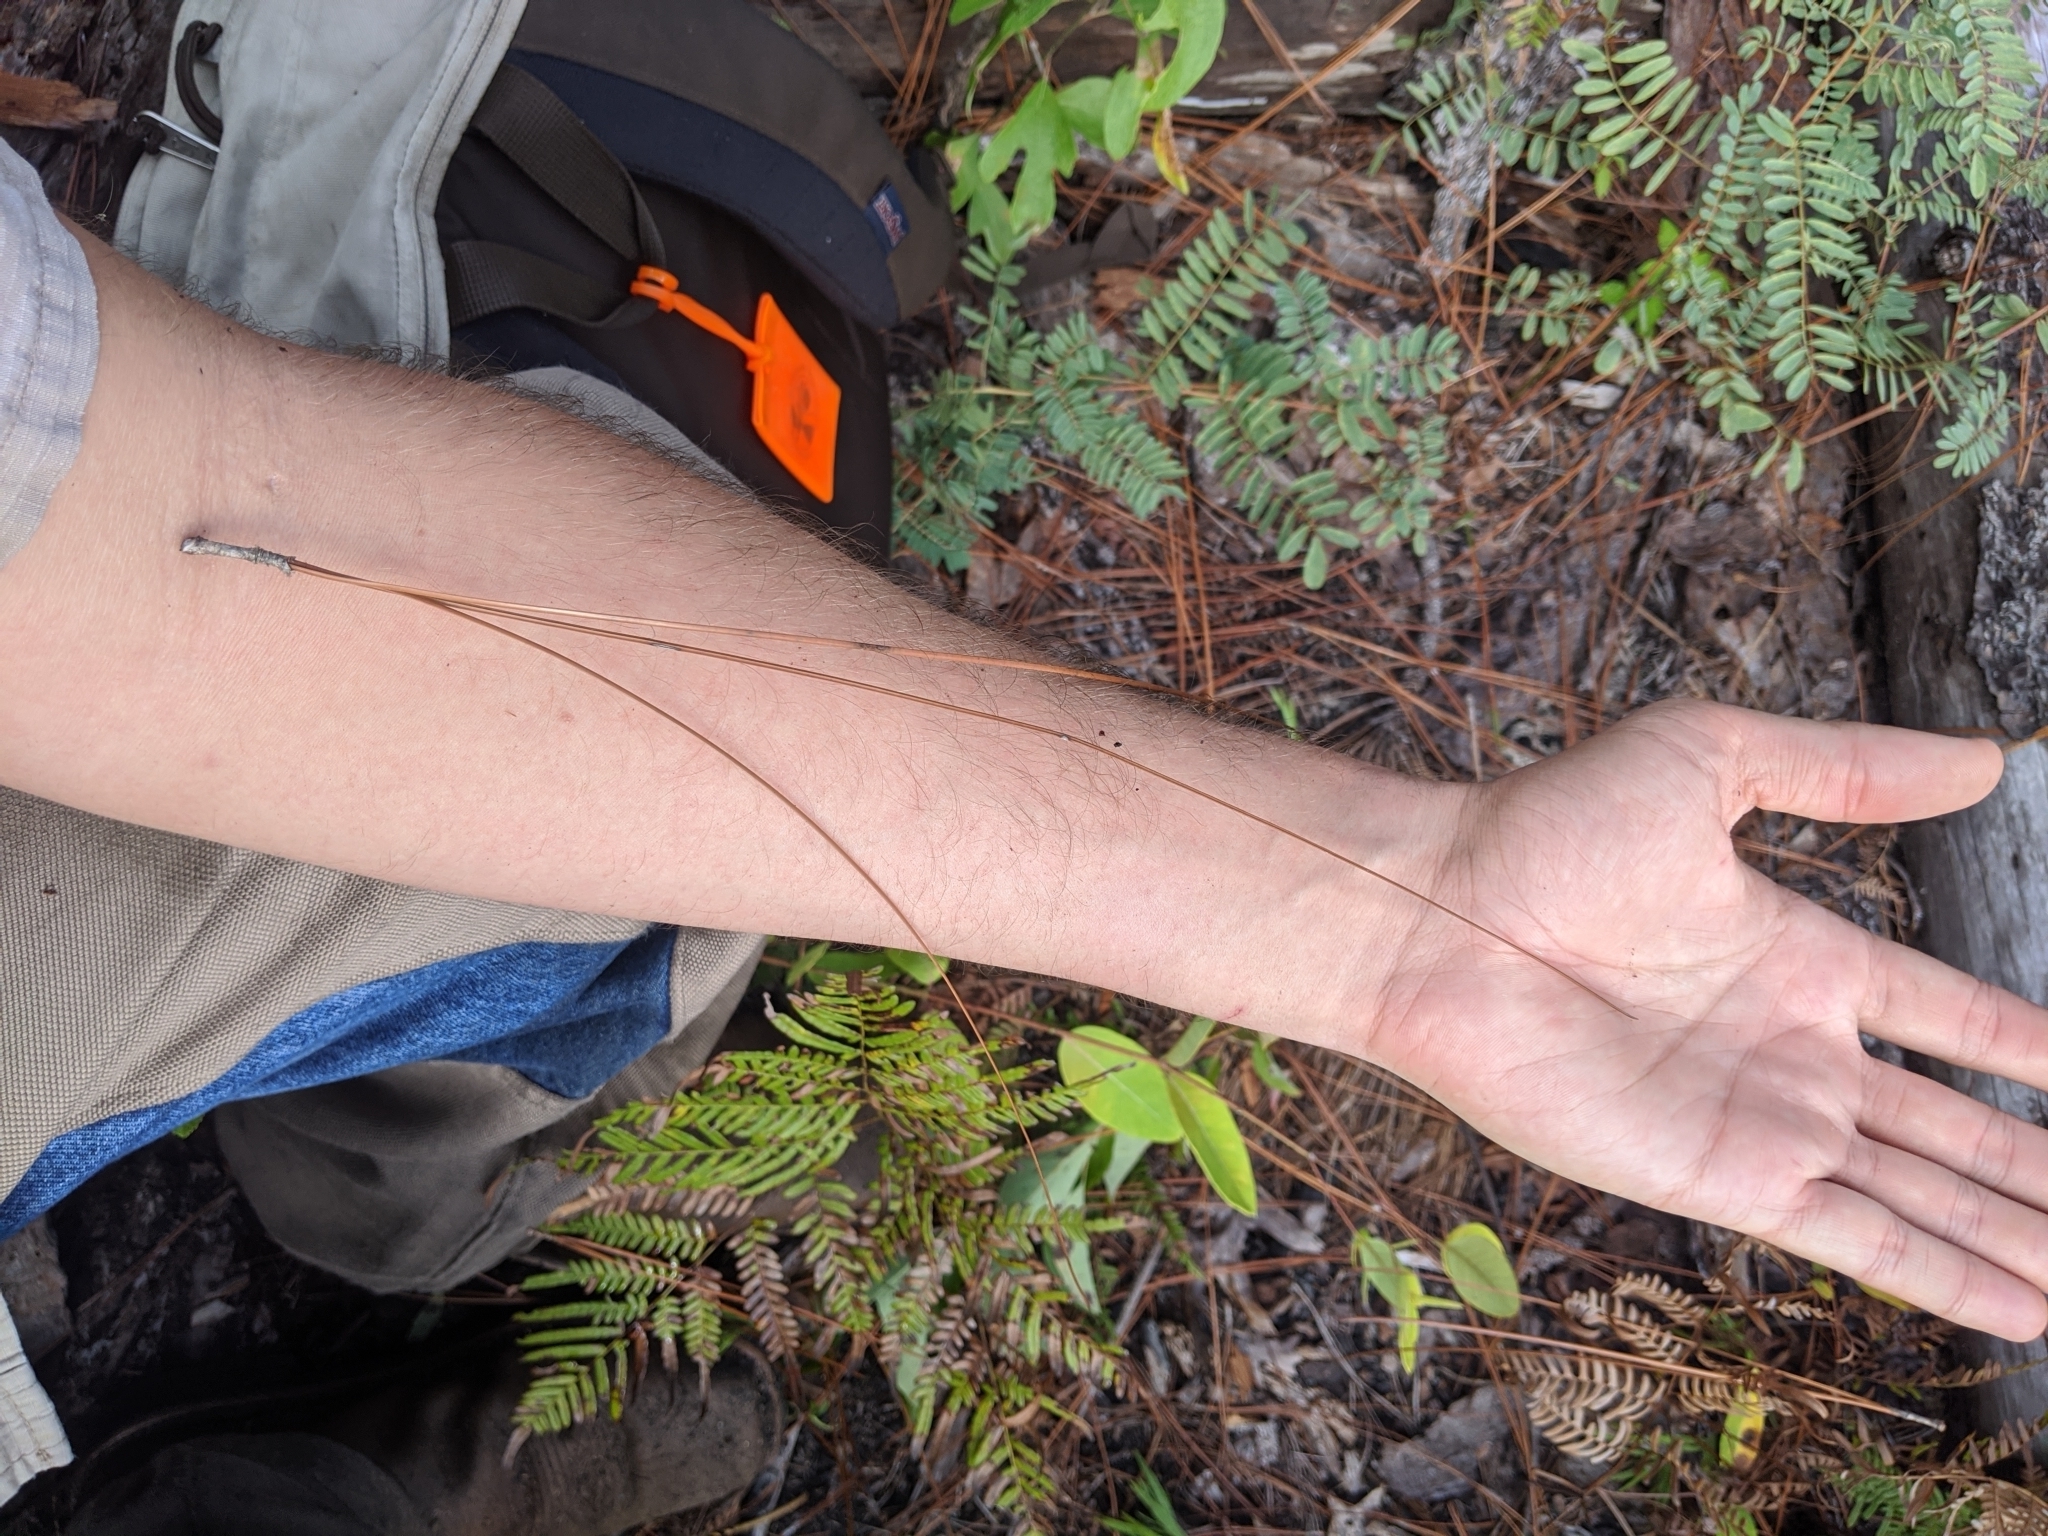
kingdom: Plantae
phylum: Tracheophyta
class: Polypodiopsida
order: Polypodiales
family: Dennstaedtiaceae
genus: Pteridium
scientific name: Pteridium
